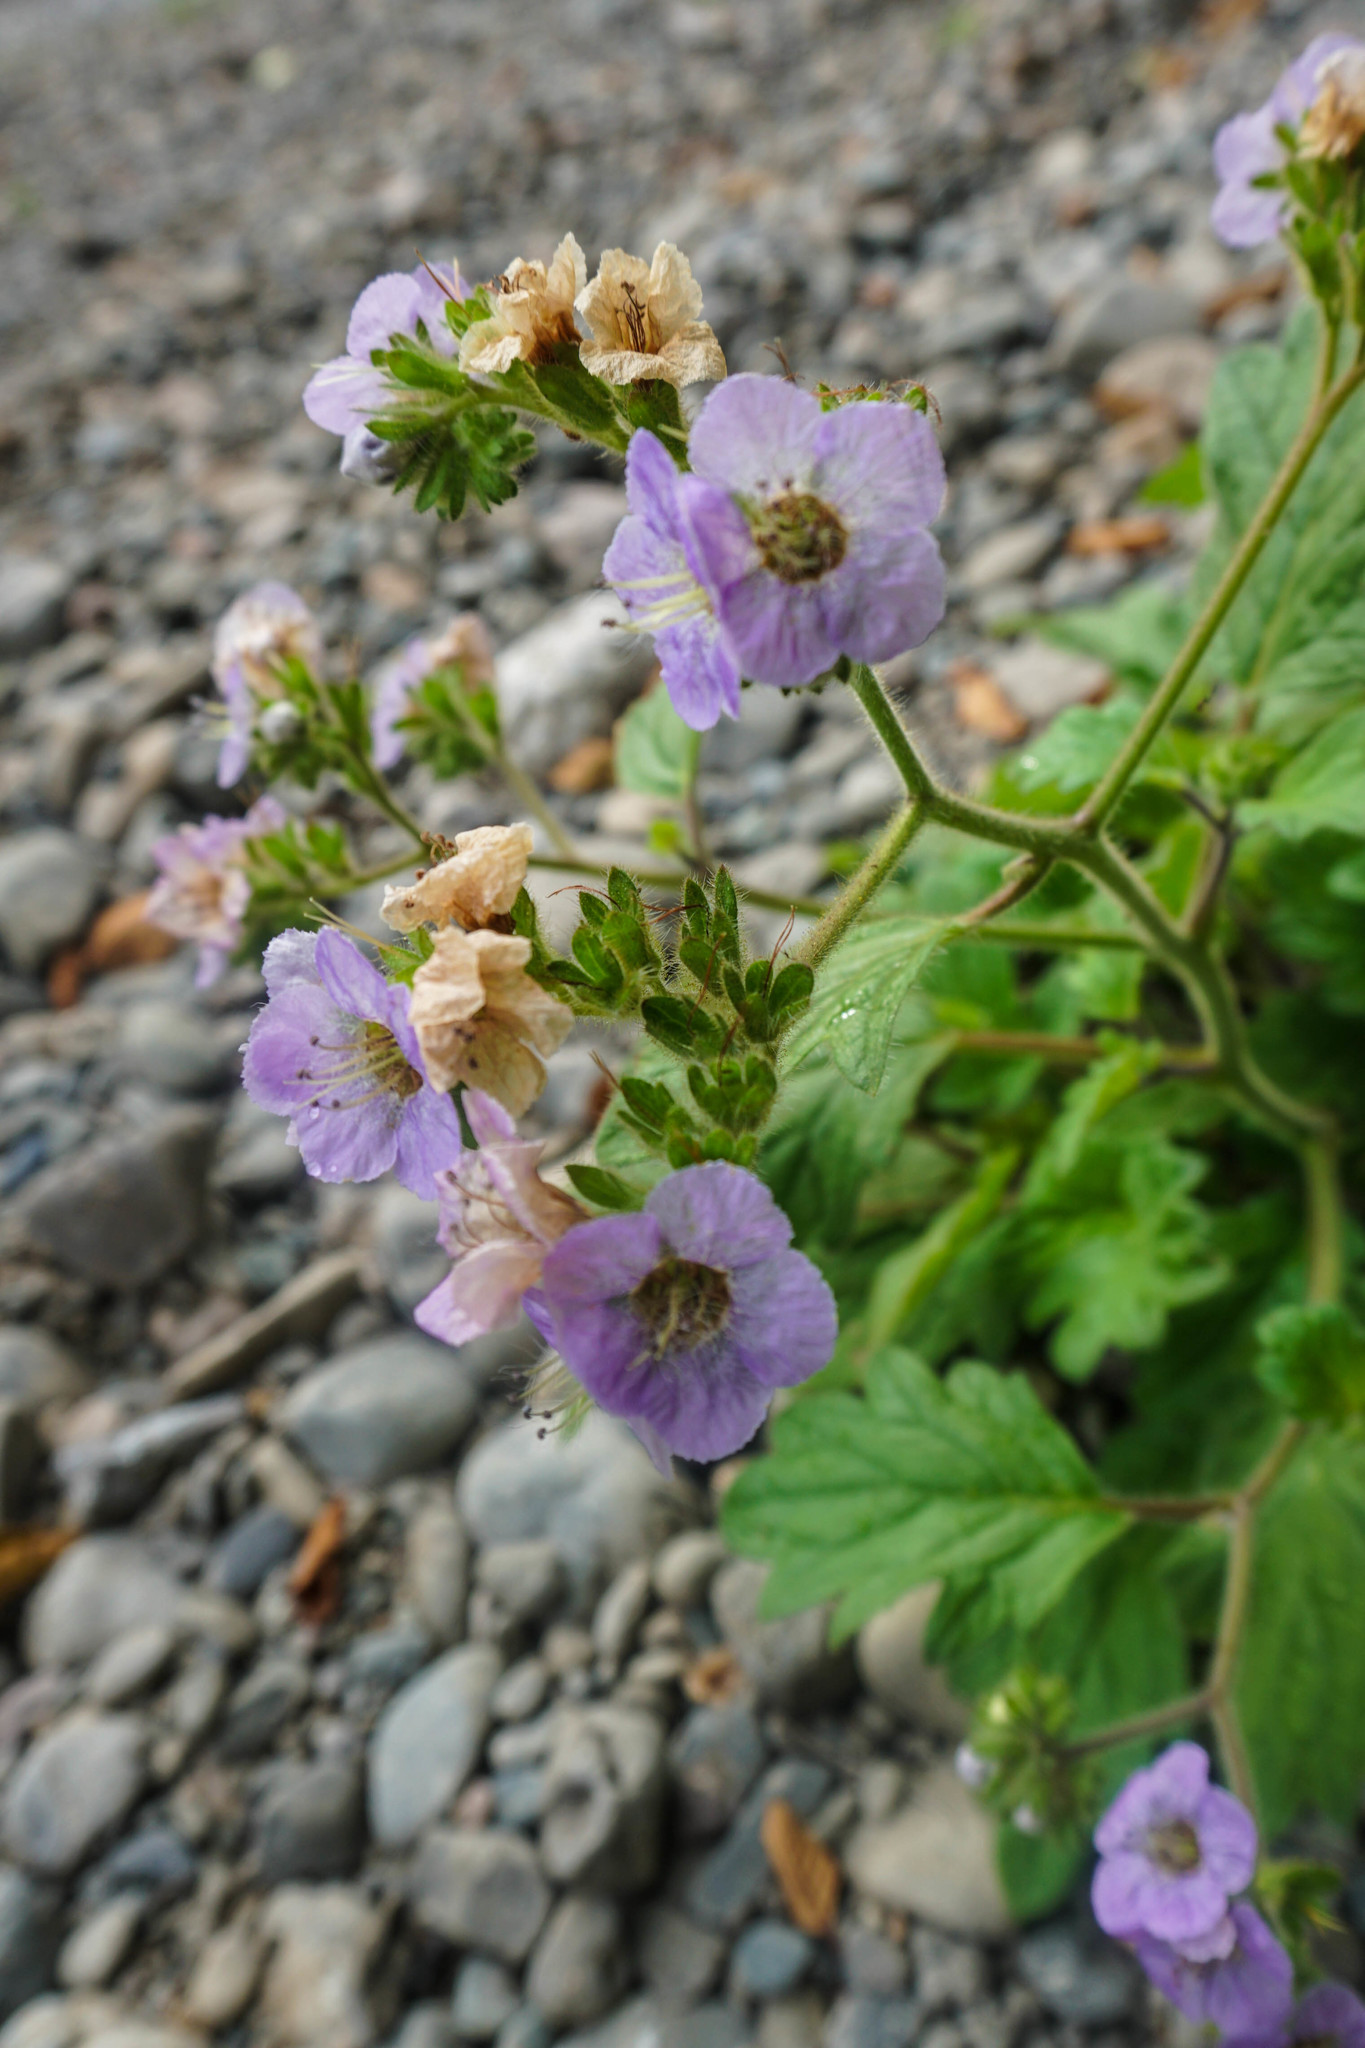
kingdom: Plantae
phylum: Tracheophyta
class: Magnoliopsida
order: Boraginales
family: Hydrophyllaceae
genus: Phacelia
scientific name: Phacelia bolanderi
